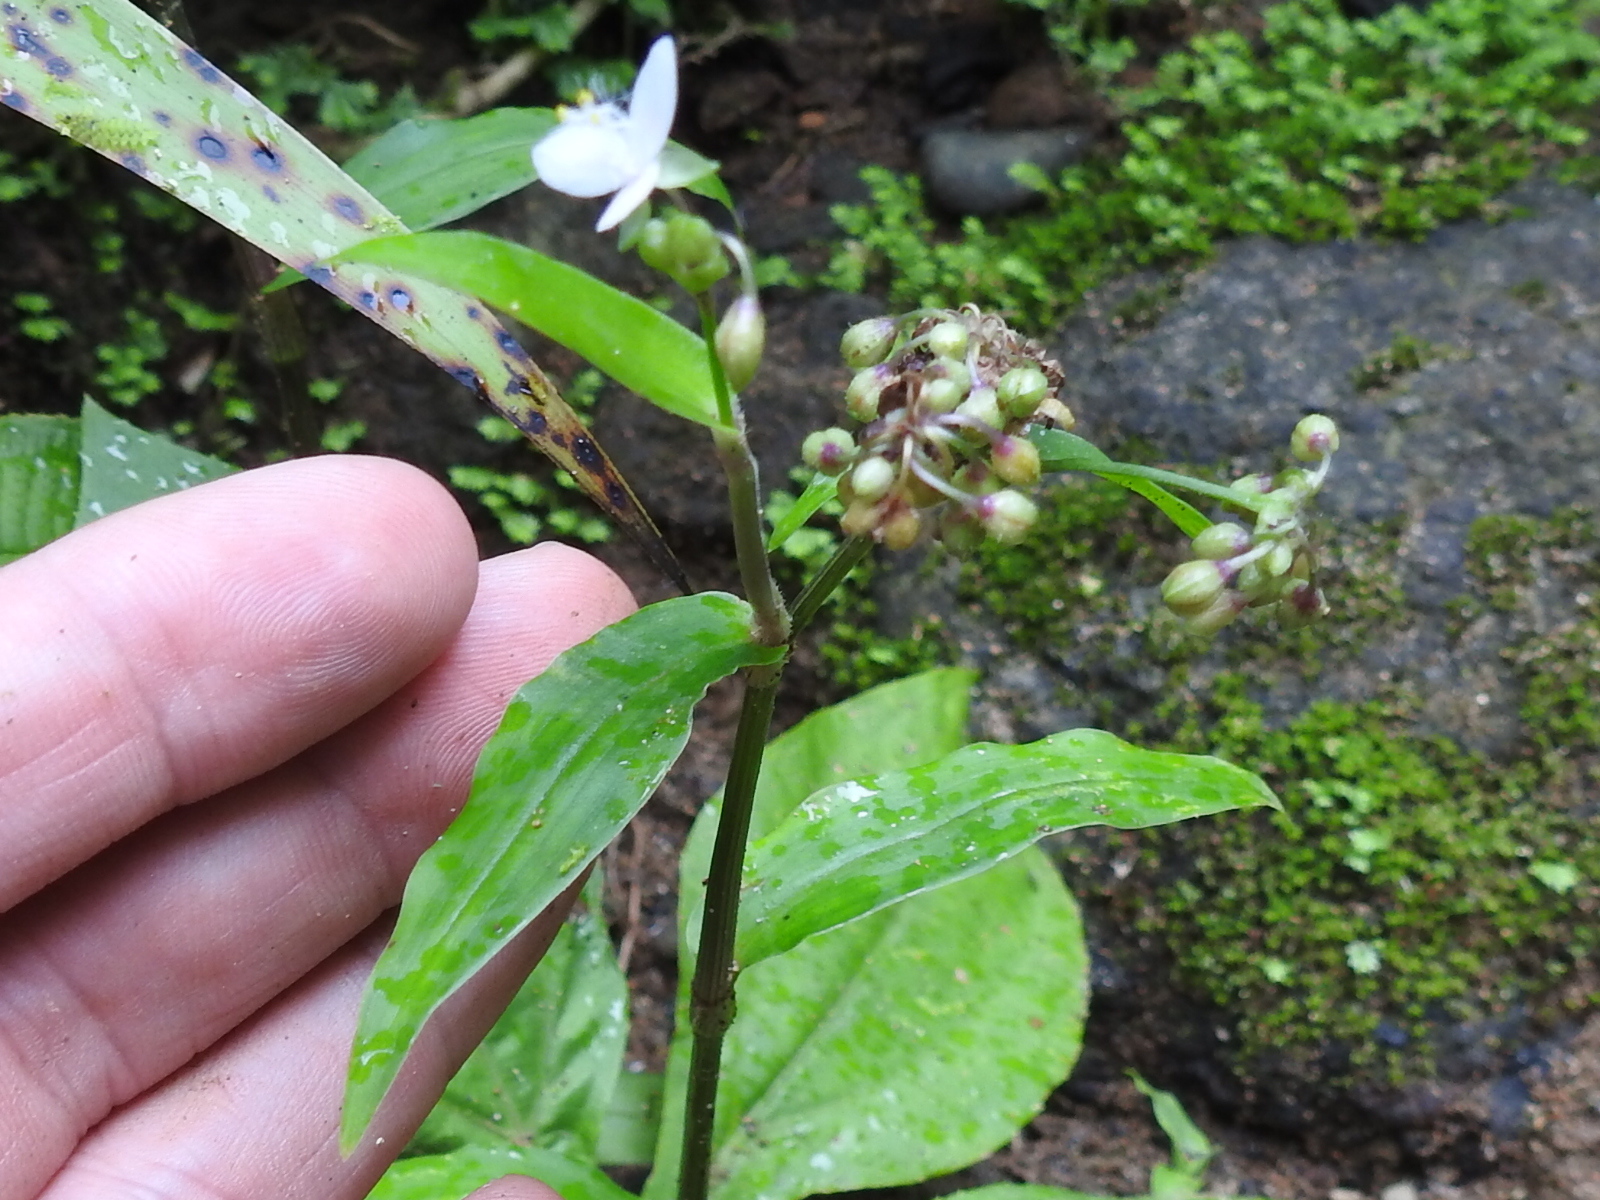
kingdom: Plantae
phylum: Tracheophyta
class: Liliopsida
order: Commelinales
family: Commelinaceae
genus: Callisia
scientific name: Callisia serrulata
